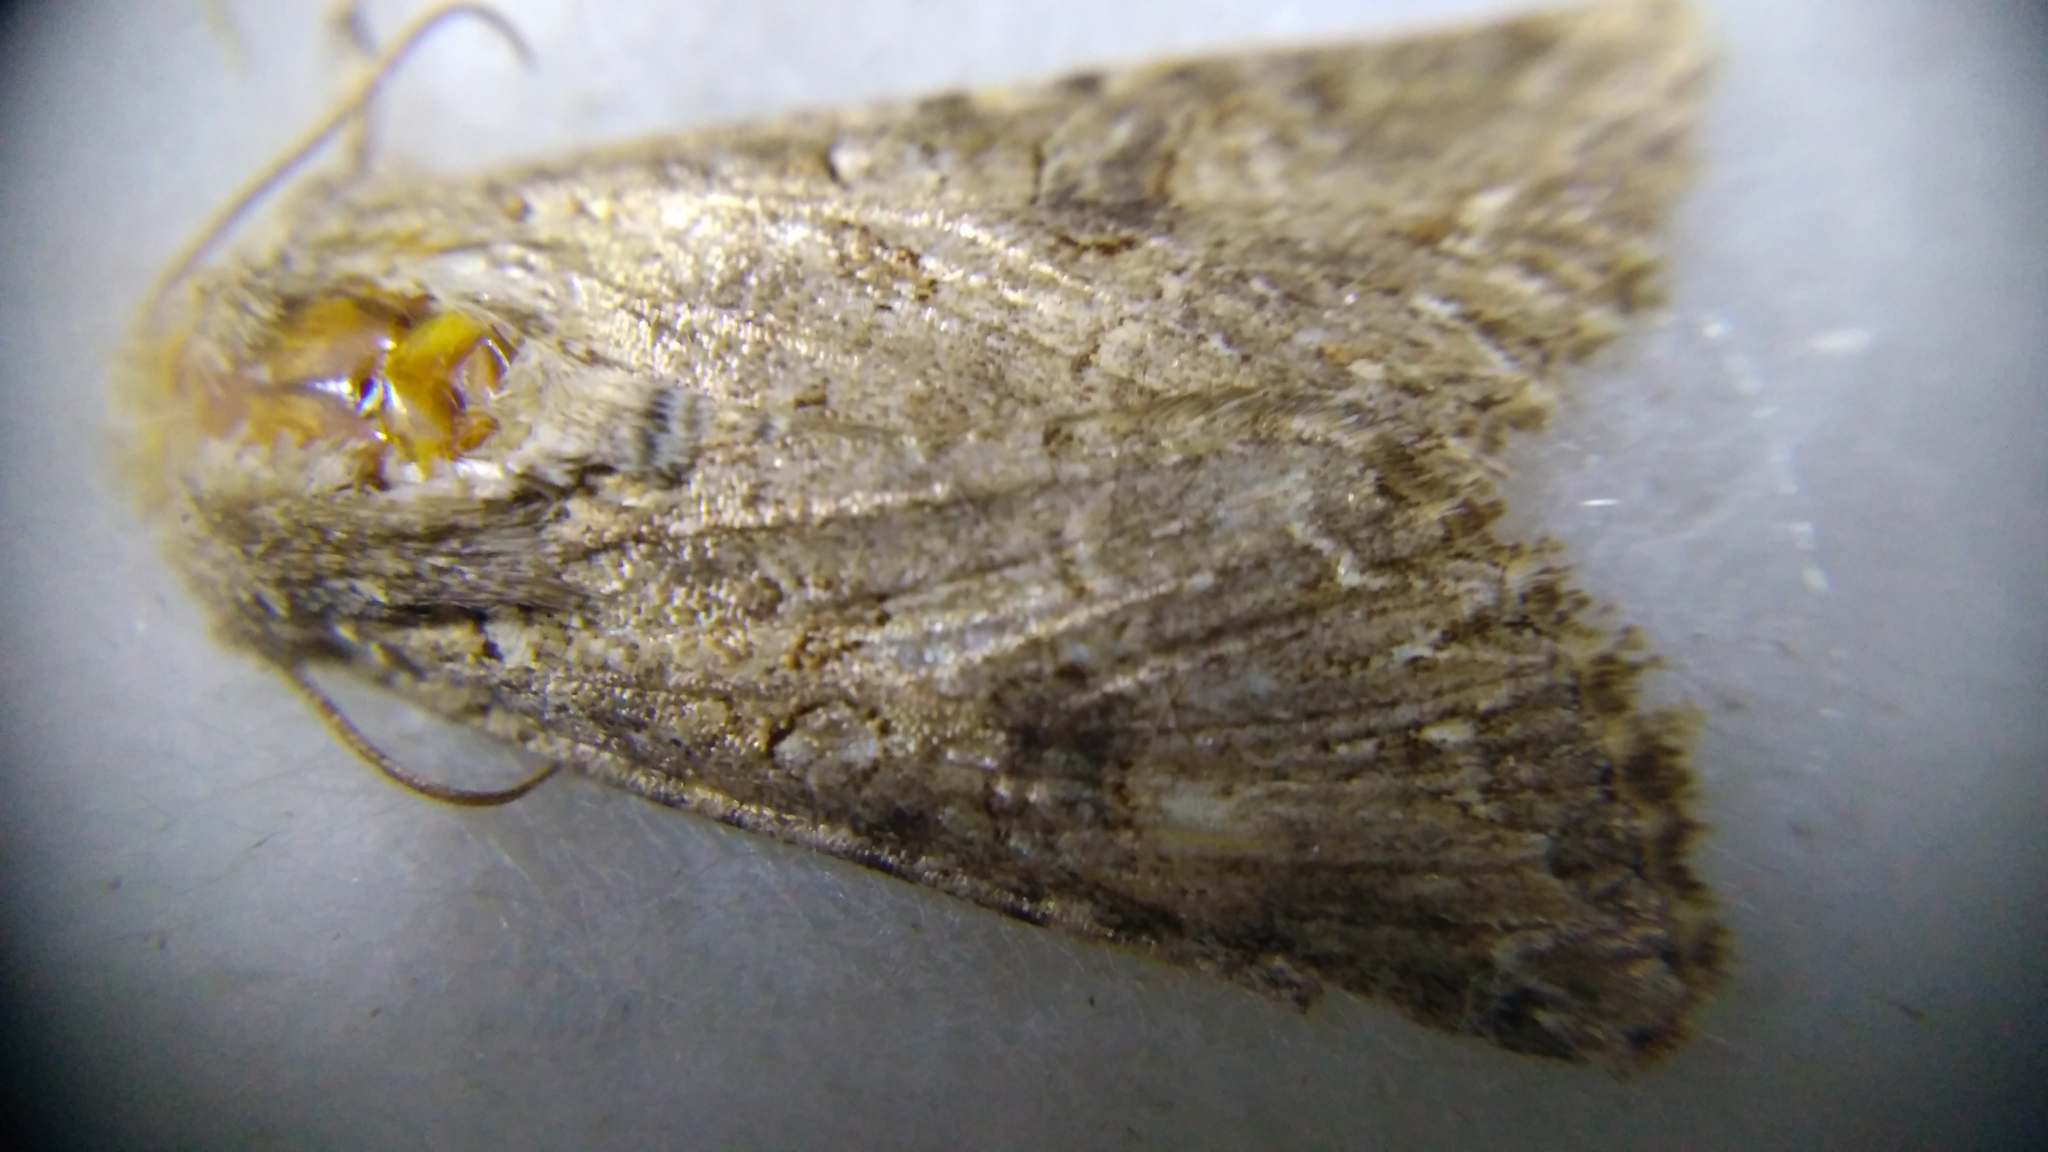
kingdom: Animalia
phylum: Arthropoda
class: Insecta
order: Lepidoptera
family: Noctuidae
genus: Anarta
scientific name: Anarta trifolii
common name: Clover cutworm moth
